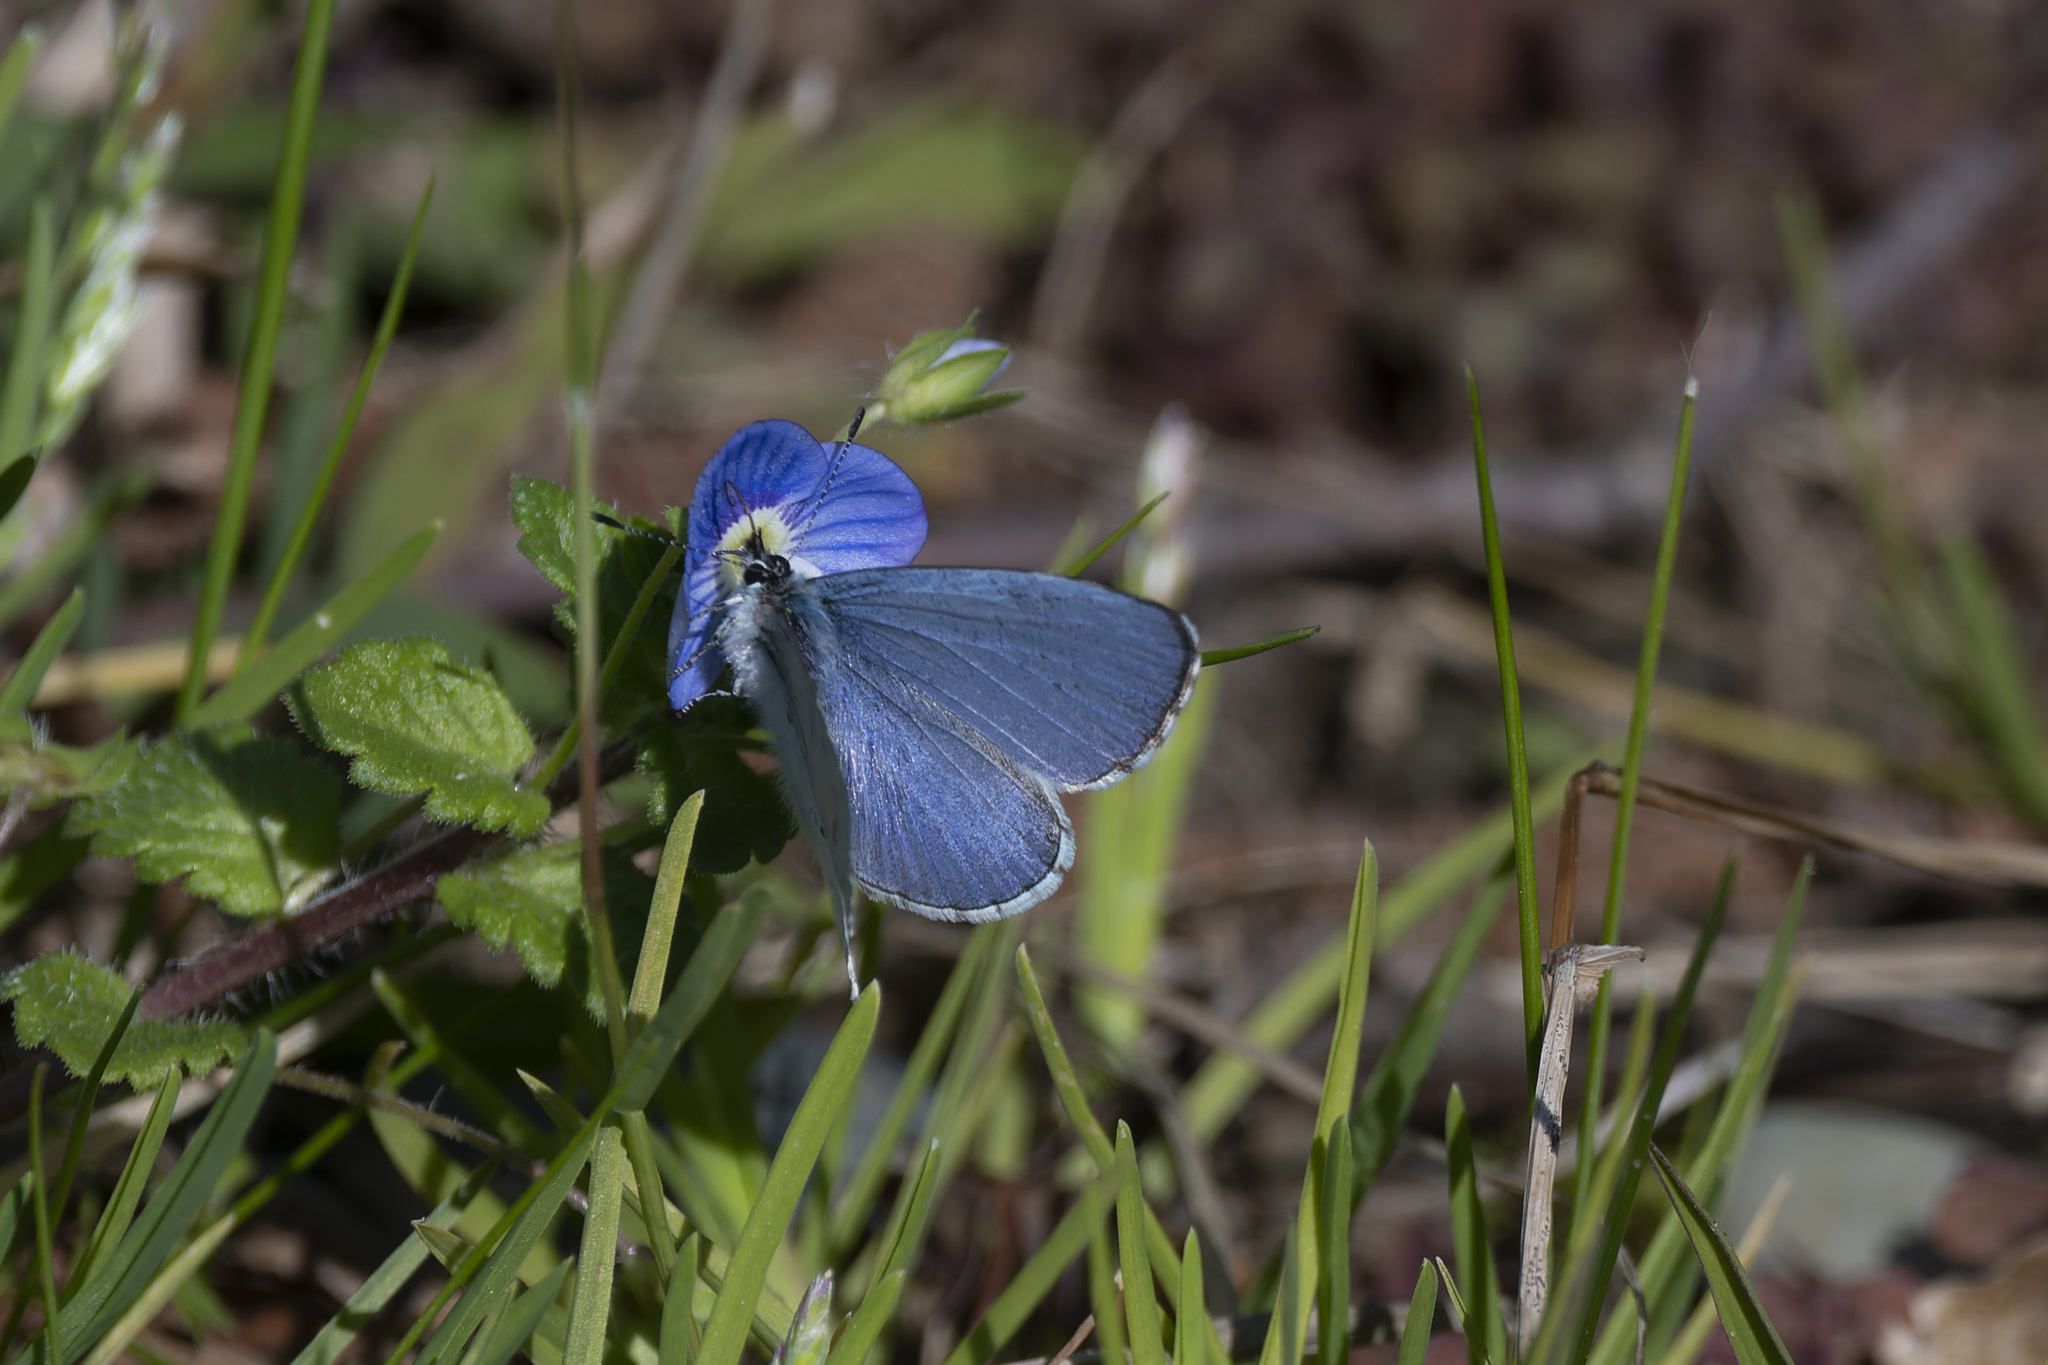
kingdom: Animalia
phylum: Arthropoda
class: Insecta
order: Lepidoptera
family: Lycaenidae
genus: Celastrina
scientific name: Celastrina argiolus
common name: Holly blue
